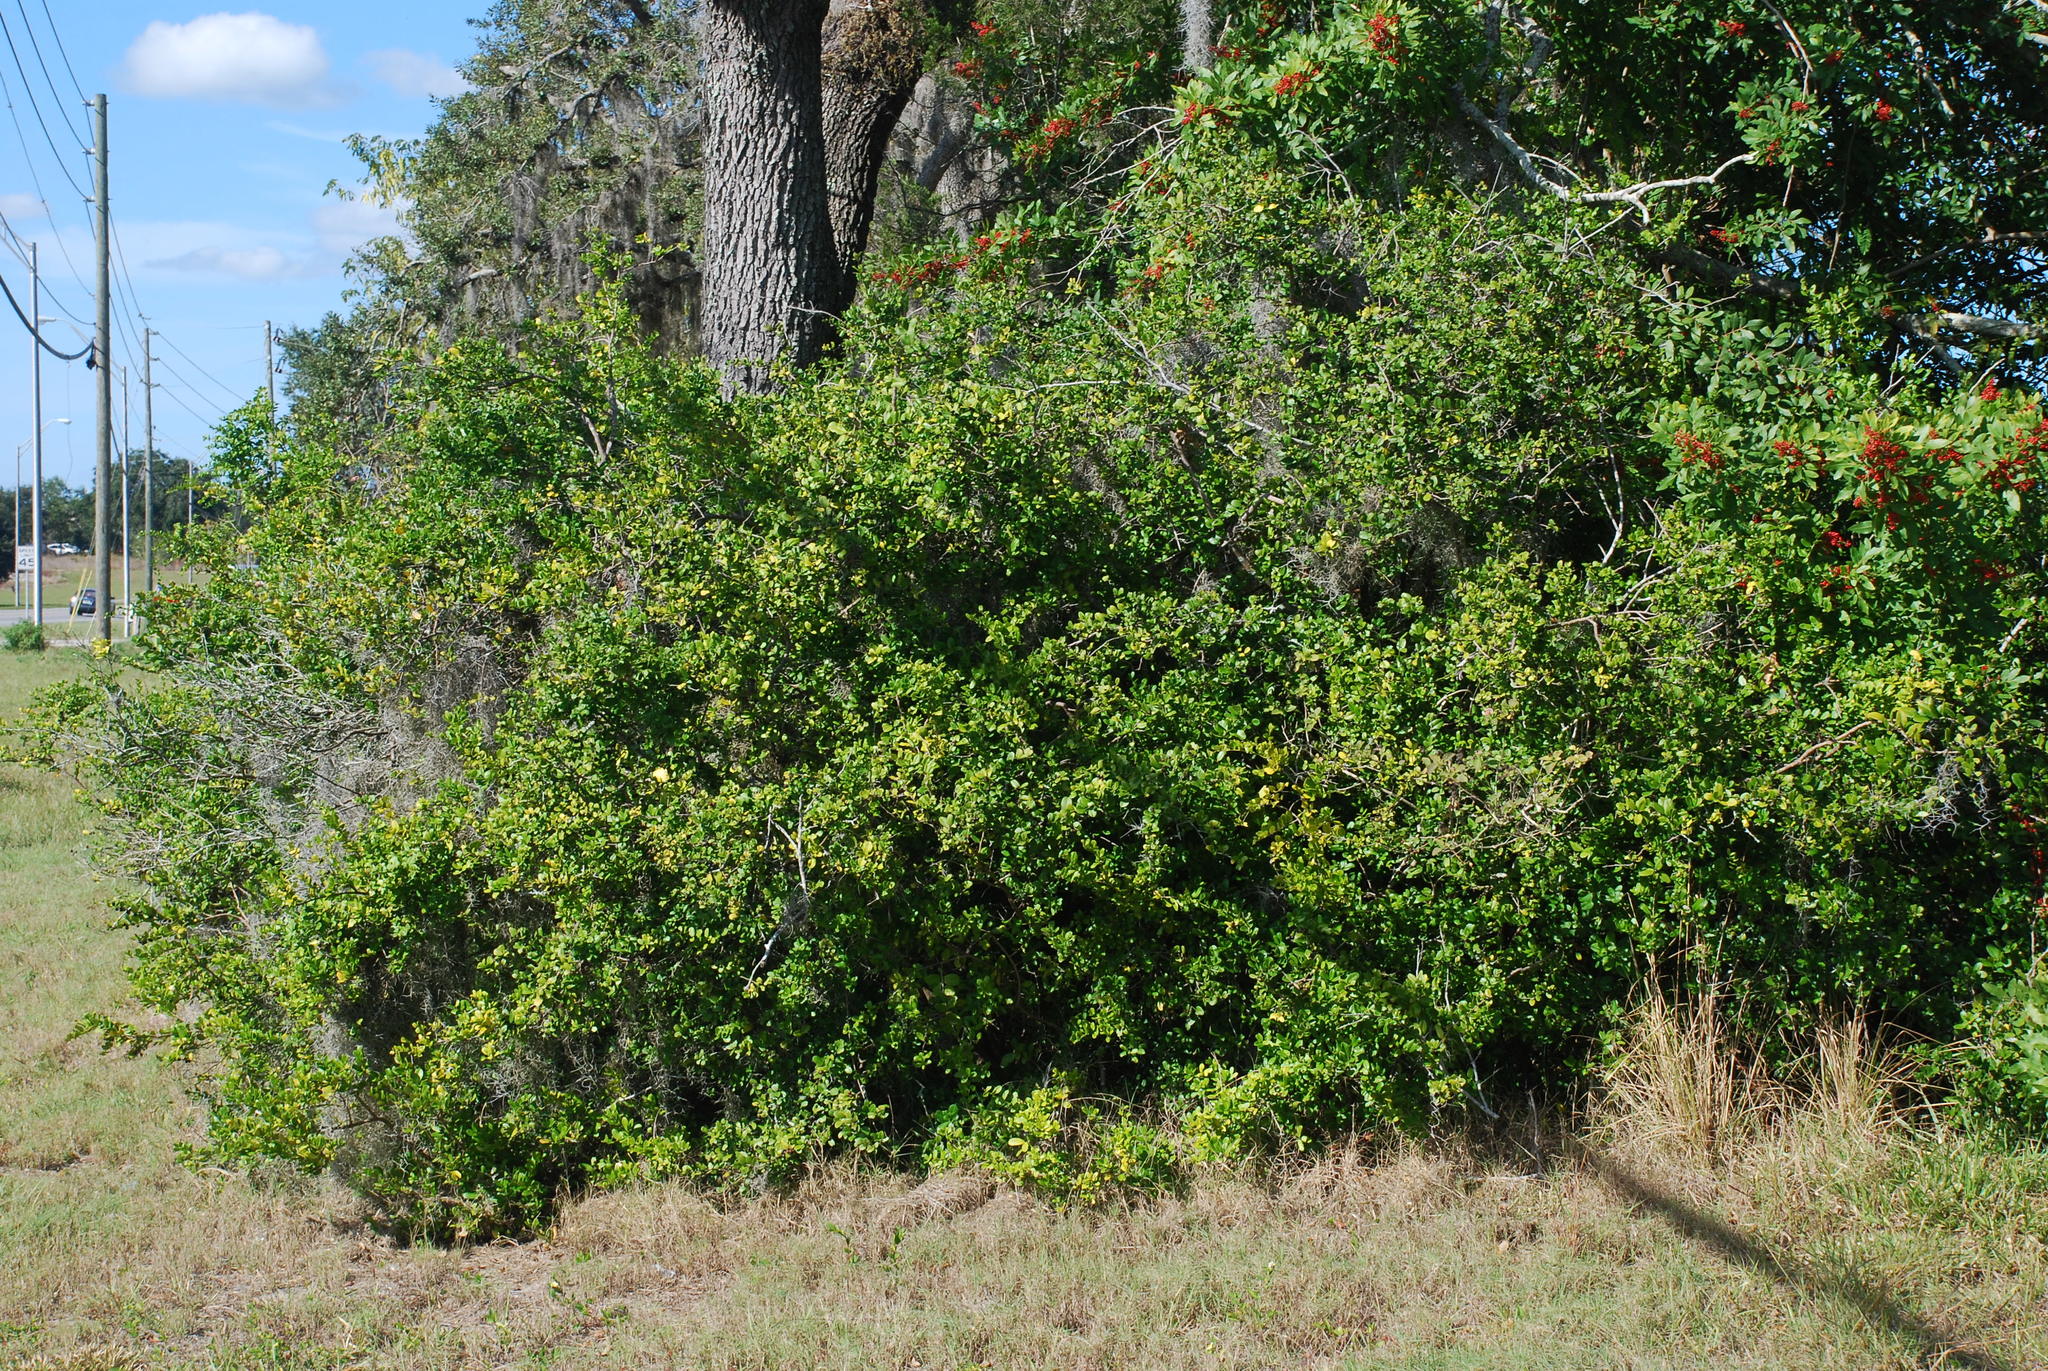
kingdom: Plantae
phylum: Tracheophyta
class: Magnoliopsida
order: Sapindales
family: Rutaceae
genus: Atalantia
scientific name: Atalantia buxifolia
